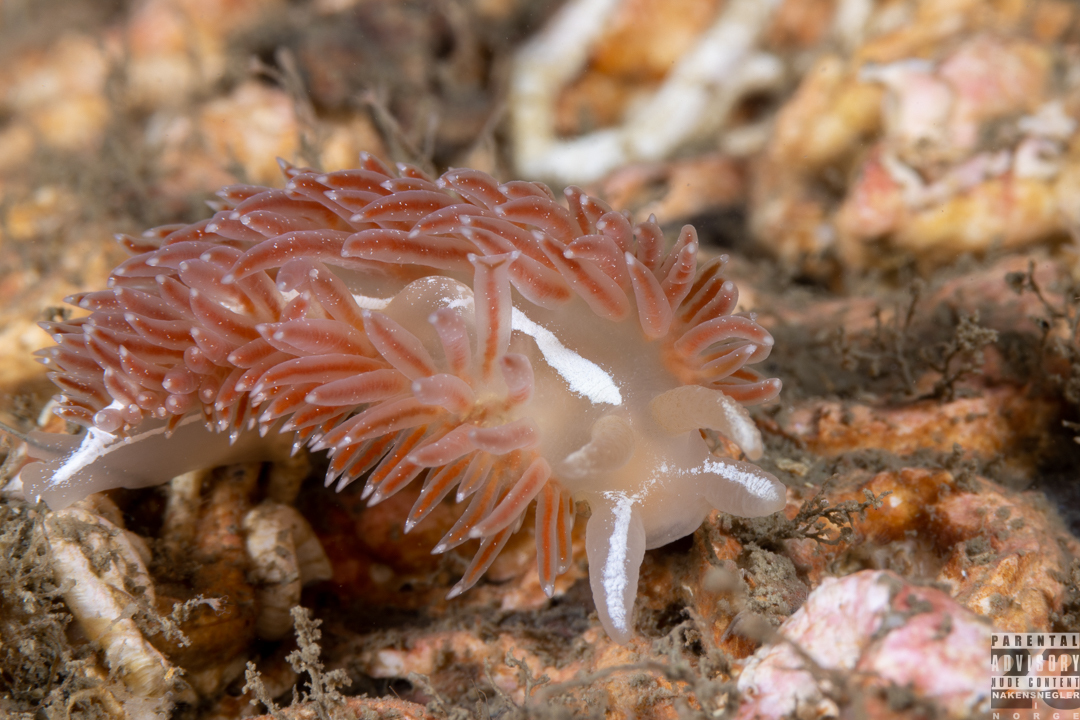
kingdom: Animalia
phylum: Mollusca
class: Gastropoda
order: Nudibranchia
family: Coryphellidae
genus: Coryphella
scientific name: Coryphella monicae
